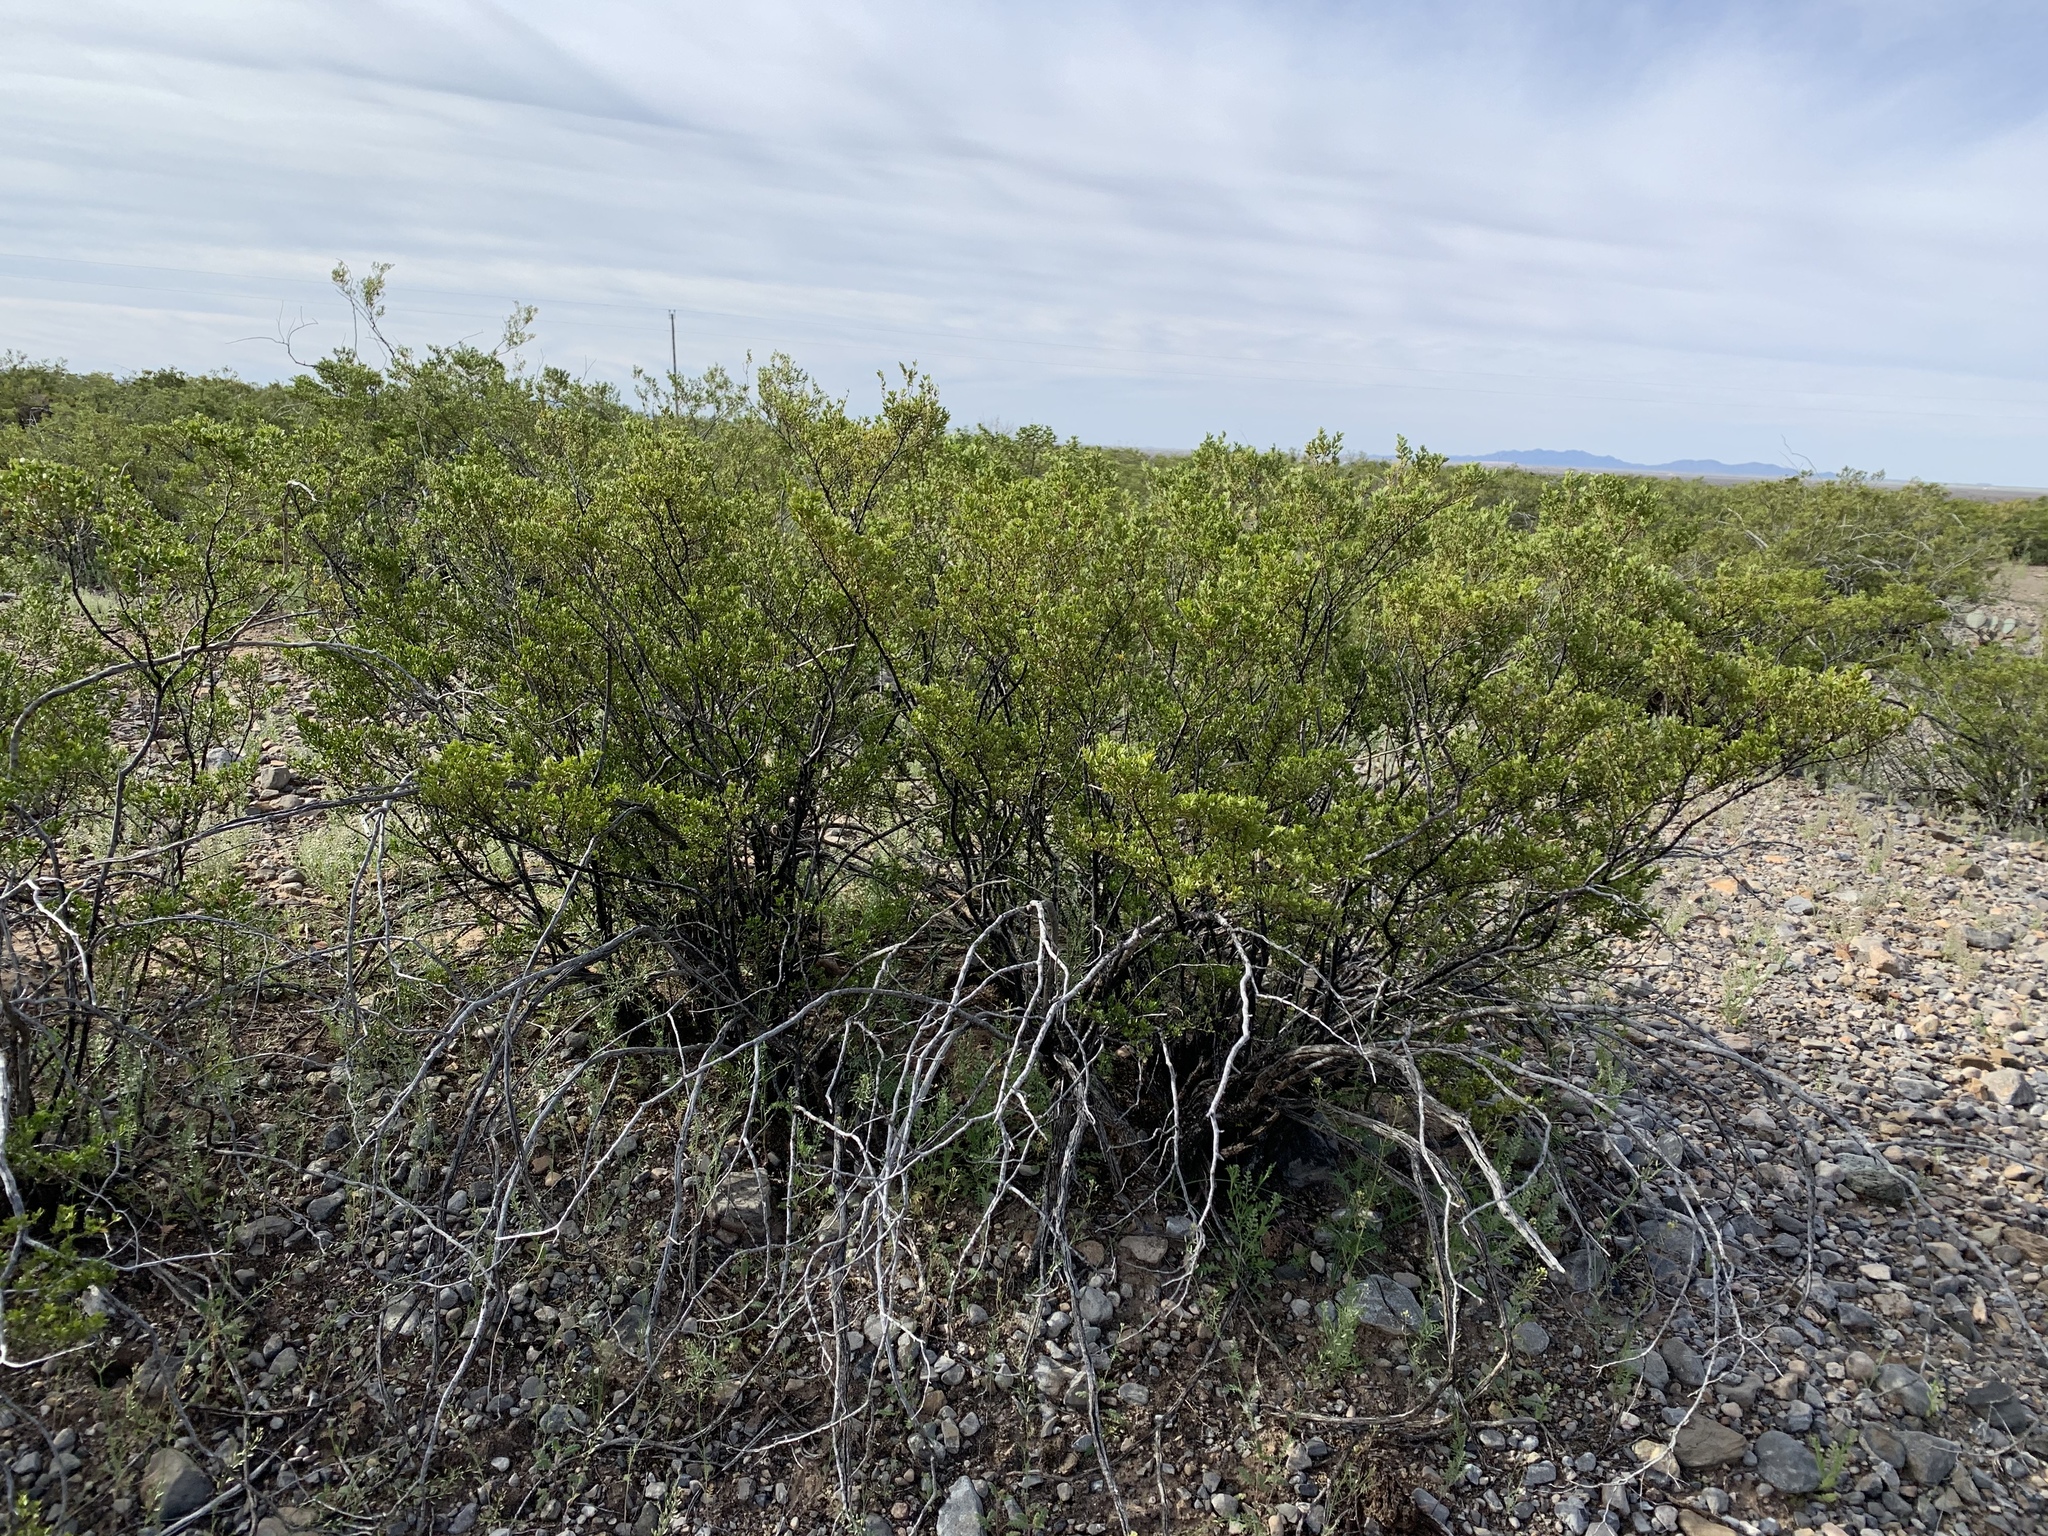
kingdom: Plantae
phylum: Tracheophyta
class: Magnoliopsida
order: Zygophyllales
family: Zygophyllaceae
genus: Larrea
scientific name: Larrea tridentata
